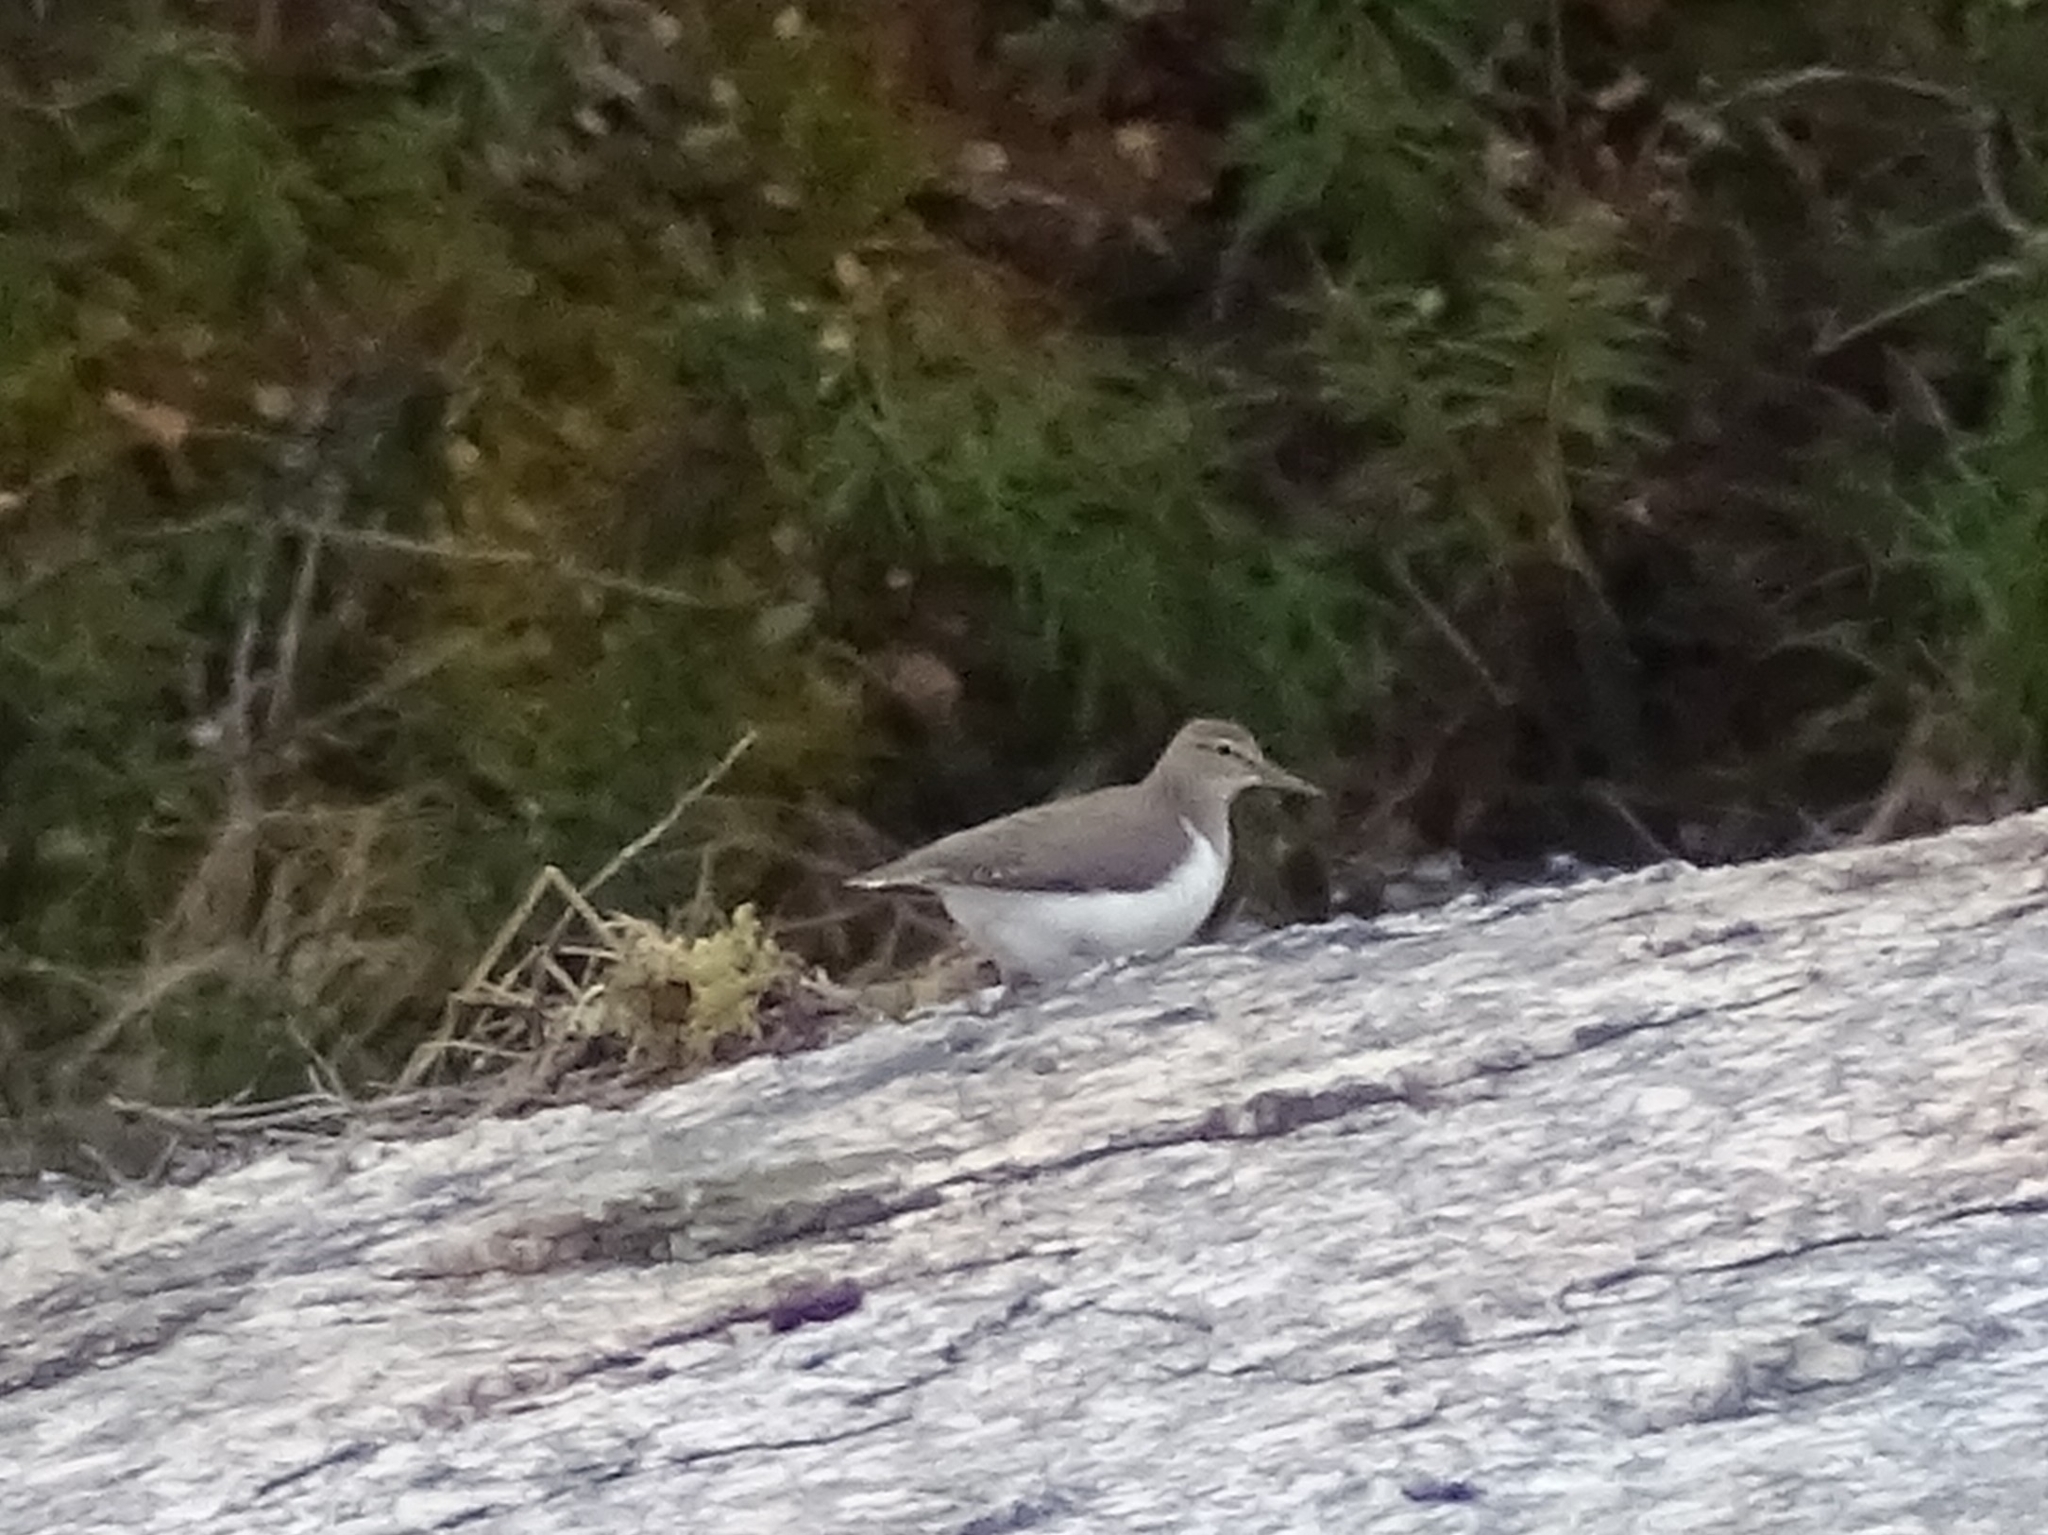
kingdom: Animalia
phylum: Chordata
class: Aves
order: Charadriiformes
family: Scolopacidae
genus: Actitis
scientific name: Actitis hypoleucos
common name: Common sandpiper
